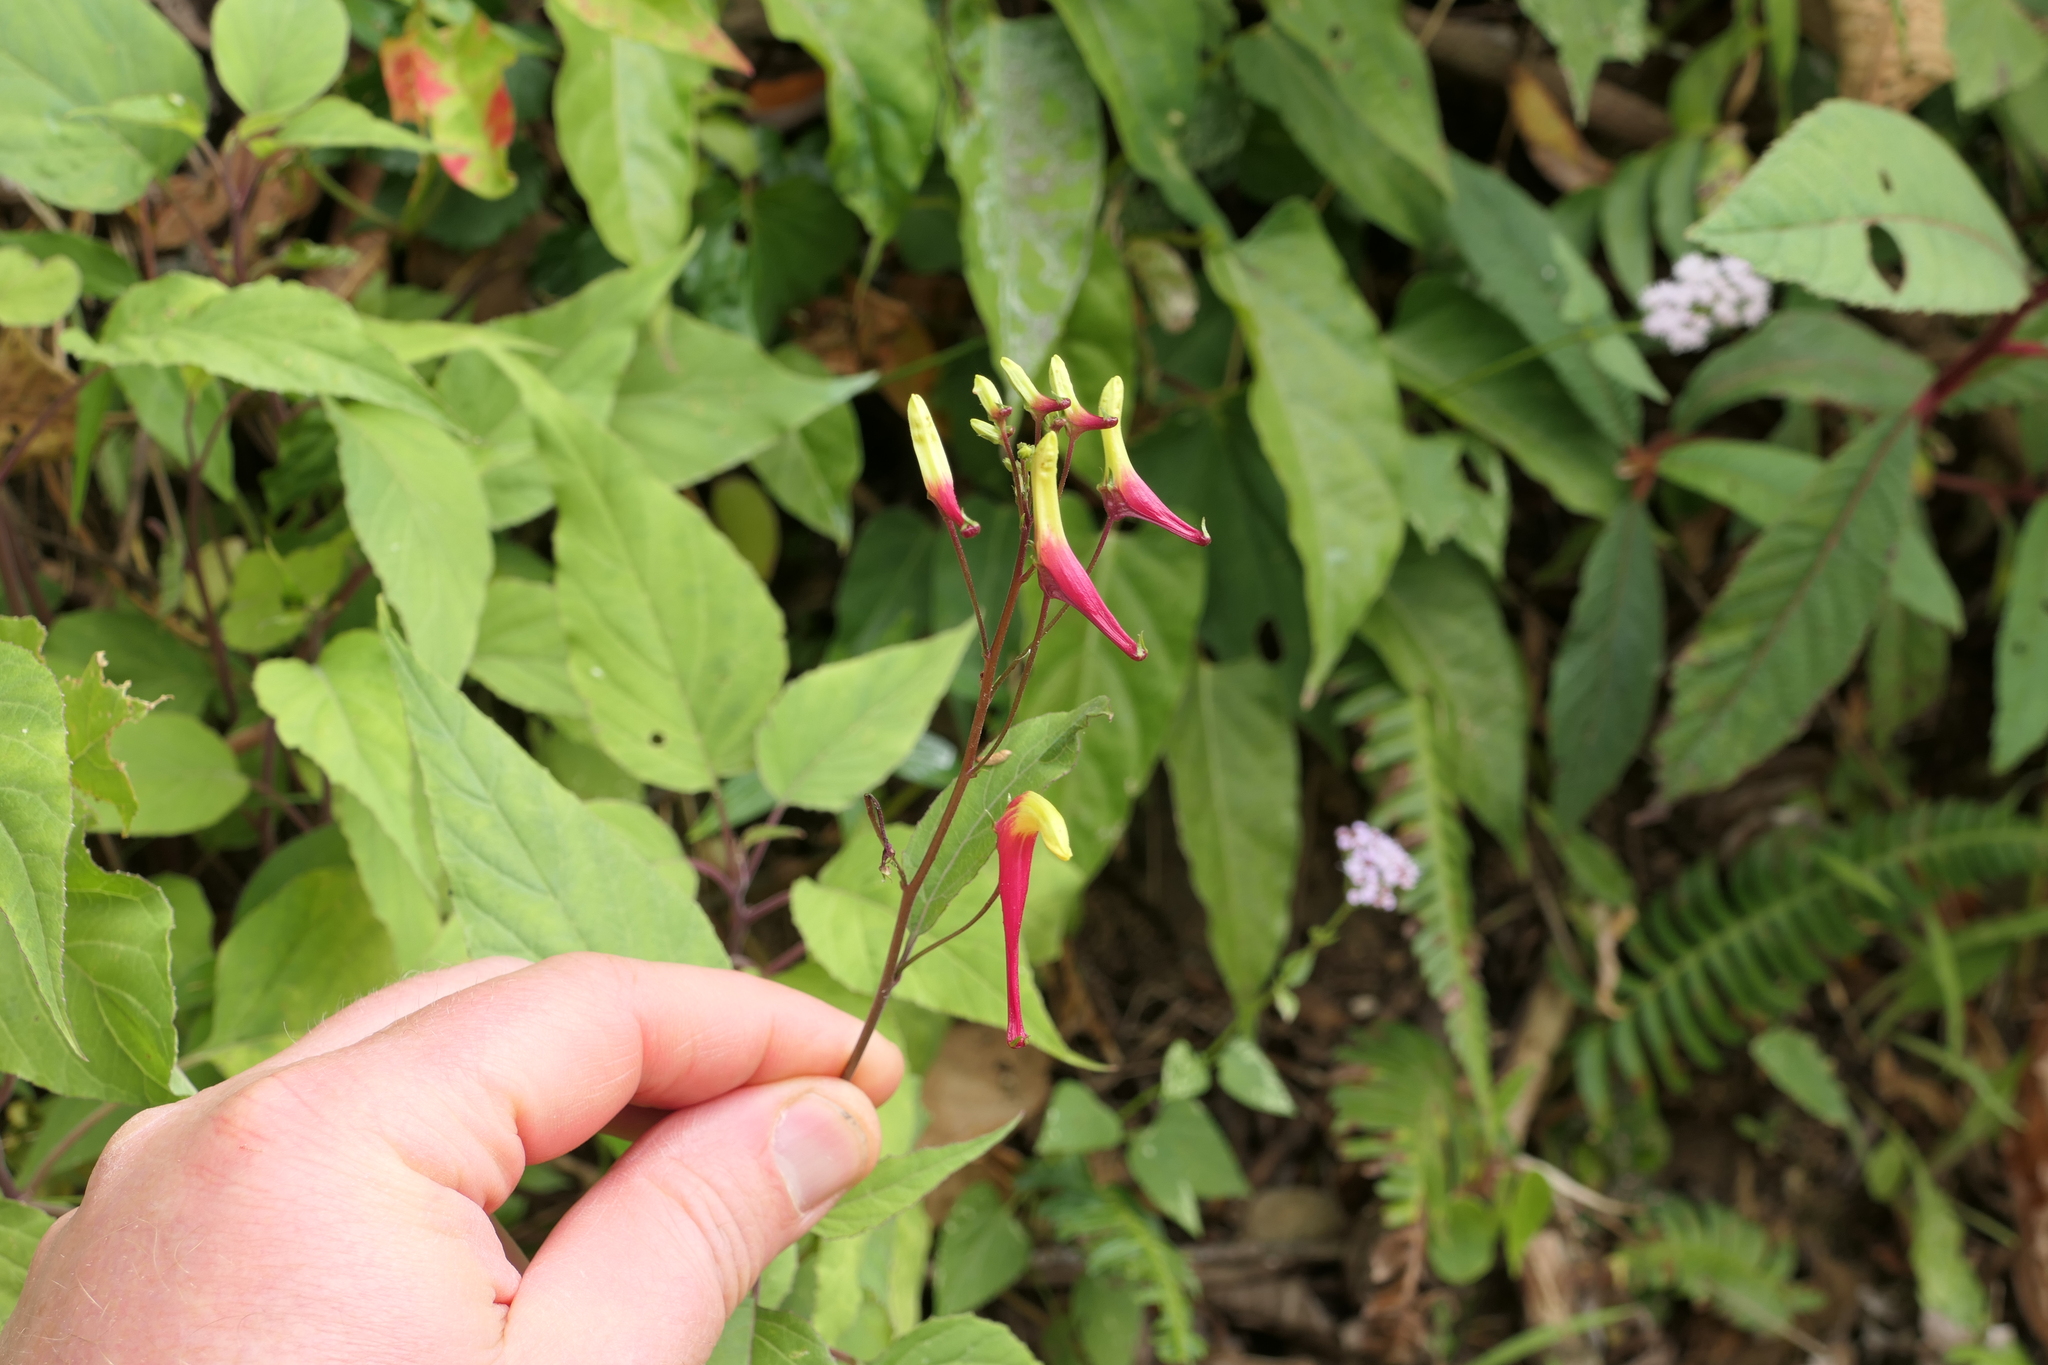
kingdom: Plantae
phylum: Tracheophyta
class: Magnoliopsida
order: Asterales
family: Campanulaceae
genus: Heterotoma
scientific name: Heterotoma lobelioides
